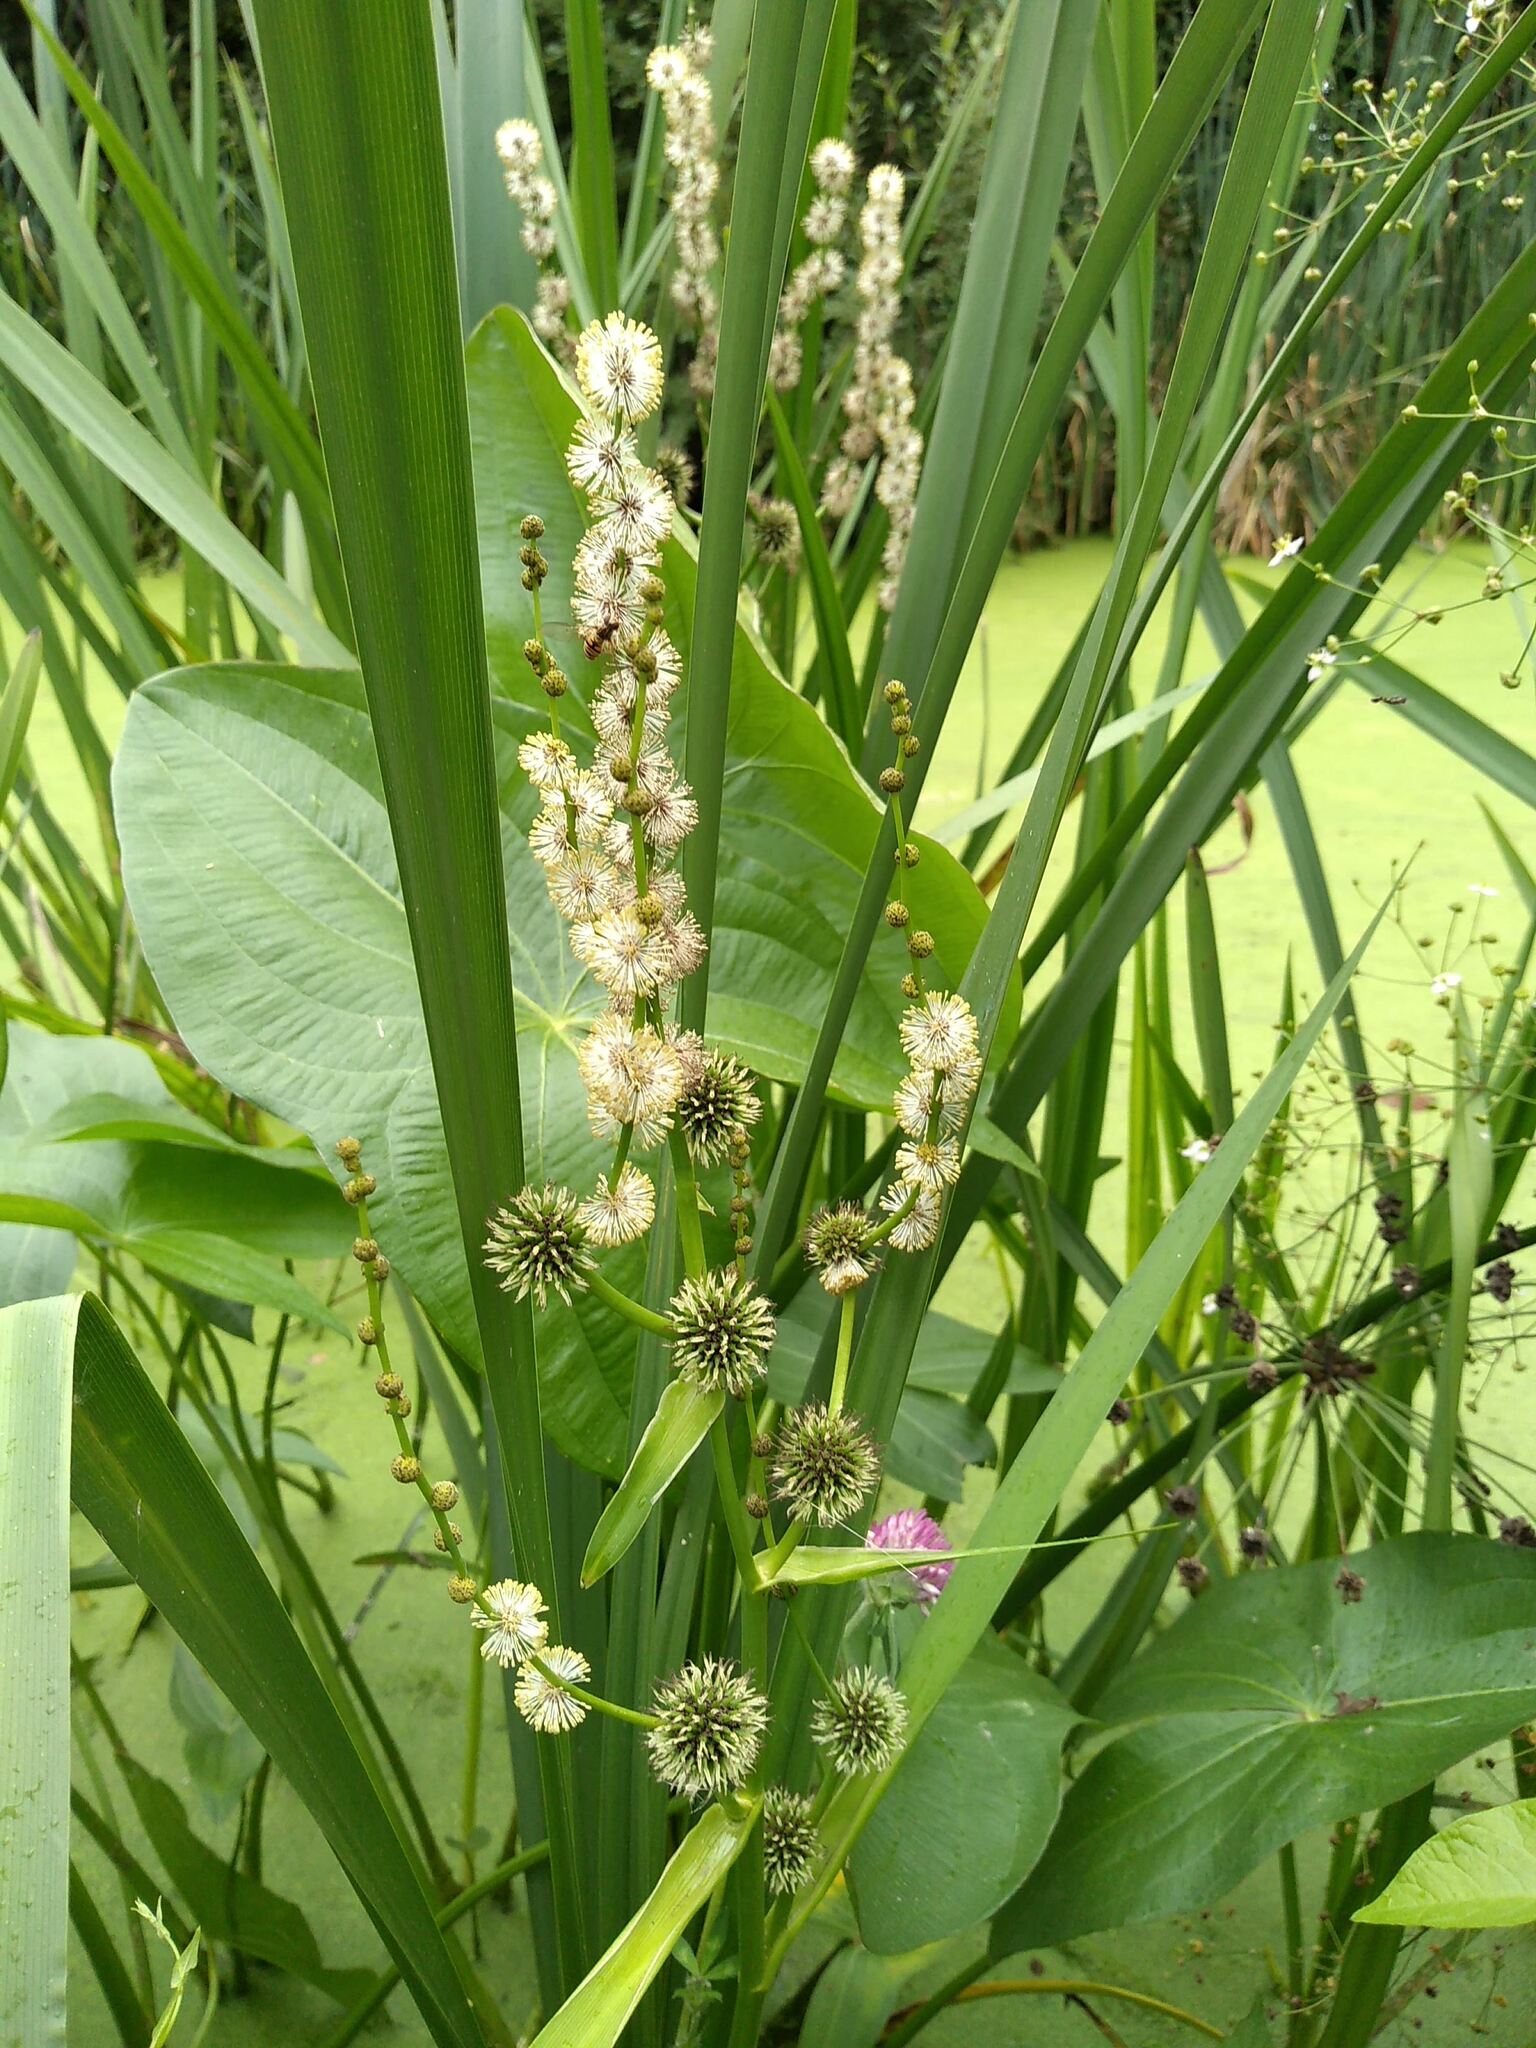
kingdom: Plantae
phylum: Tracheophyta
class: Liliopsida
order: Poales
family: Typhaceae
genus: Sparganium
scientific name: Sparganium erectum
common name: Branched bur-reed
